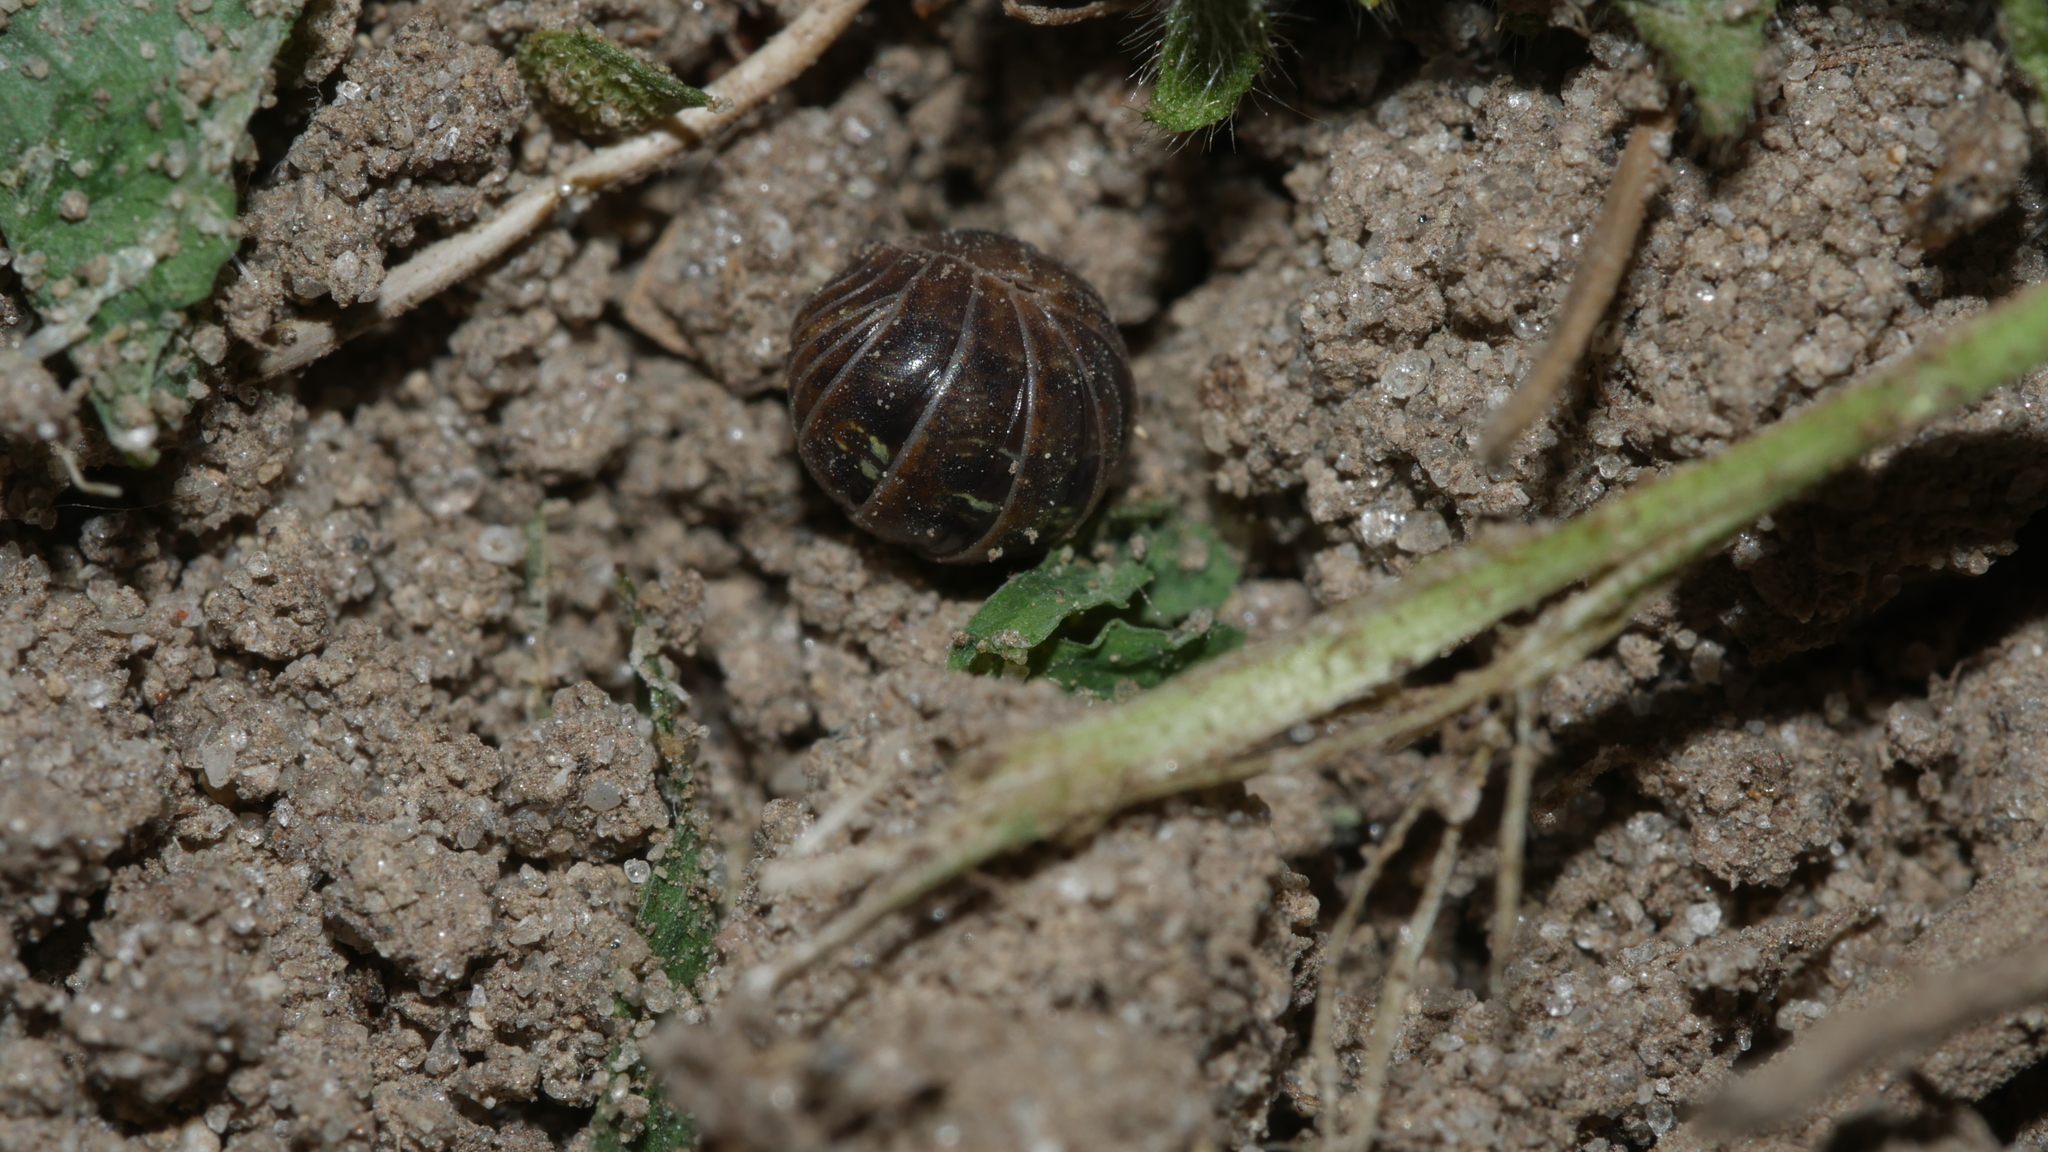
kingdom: Animalia
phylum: Arthropoda
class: Malacostraca
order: Isopoda
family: Armadillidiidae
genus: Armadillidium
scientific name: Armadillidium vulgare
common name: Common pill woodlouse
